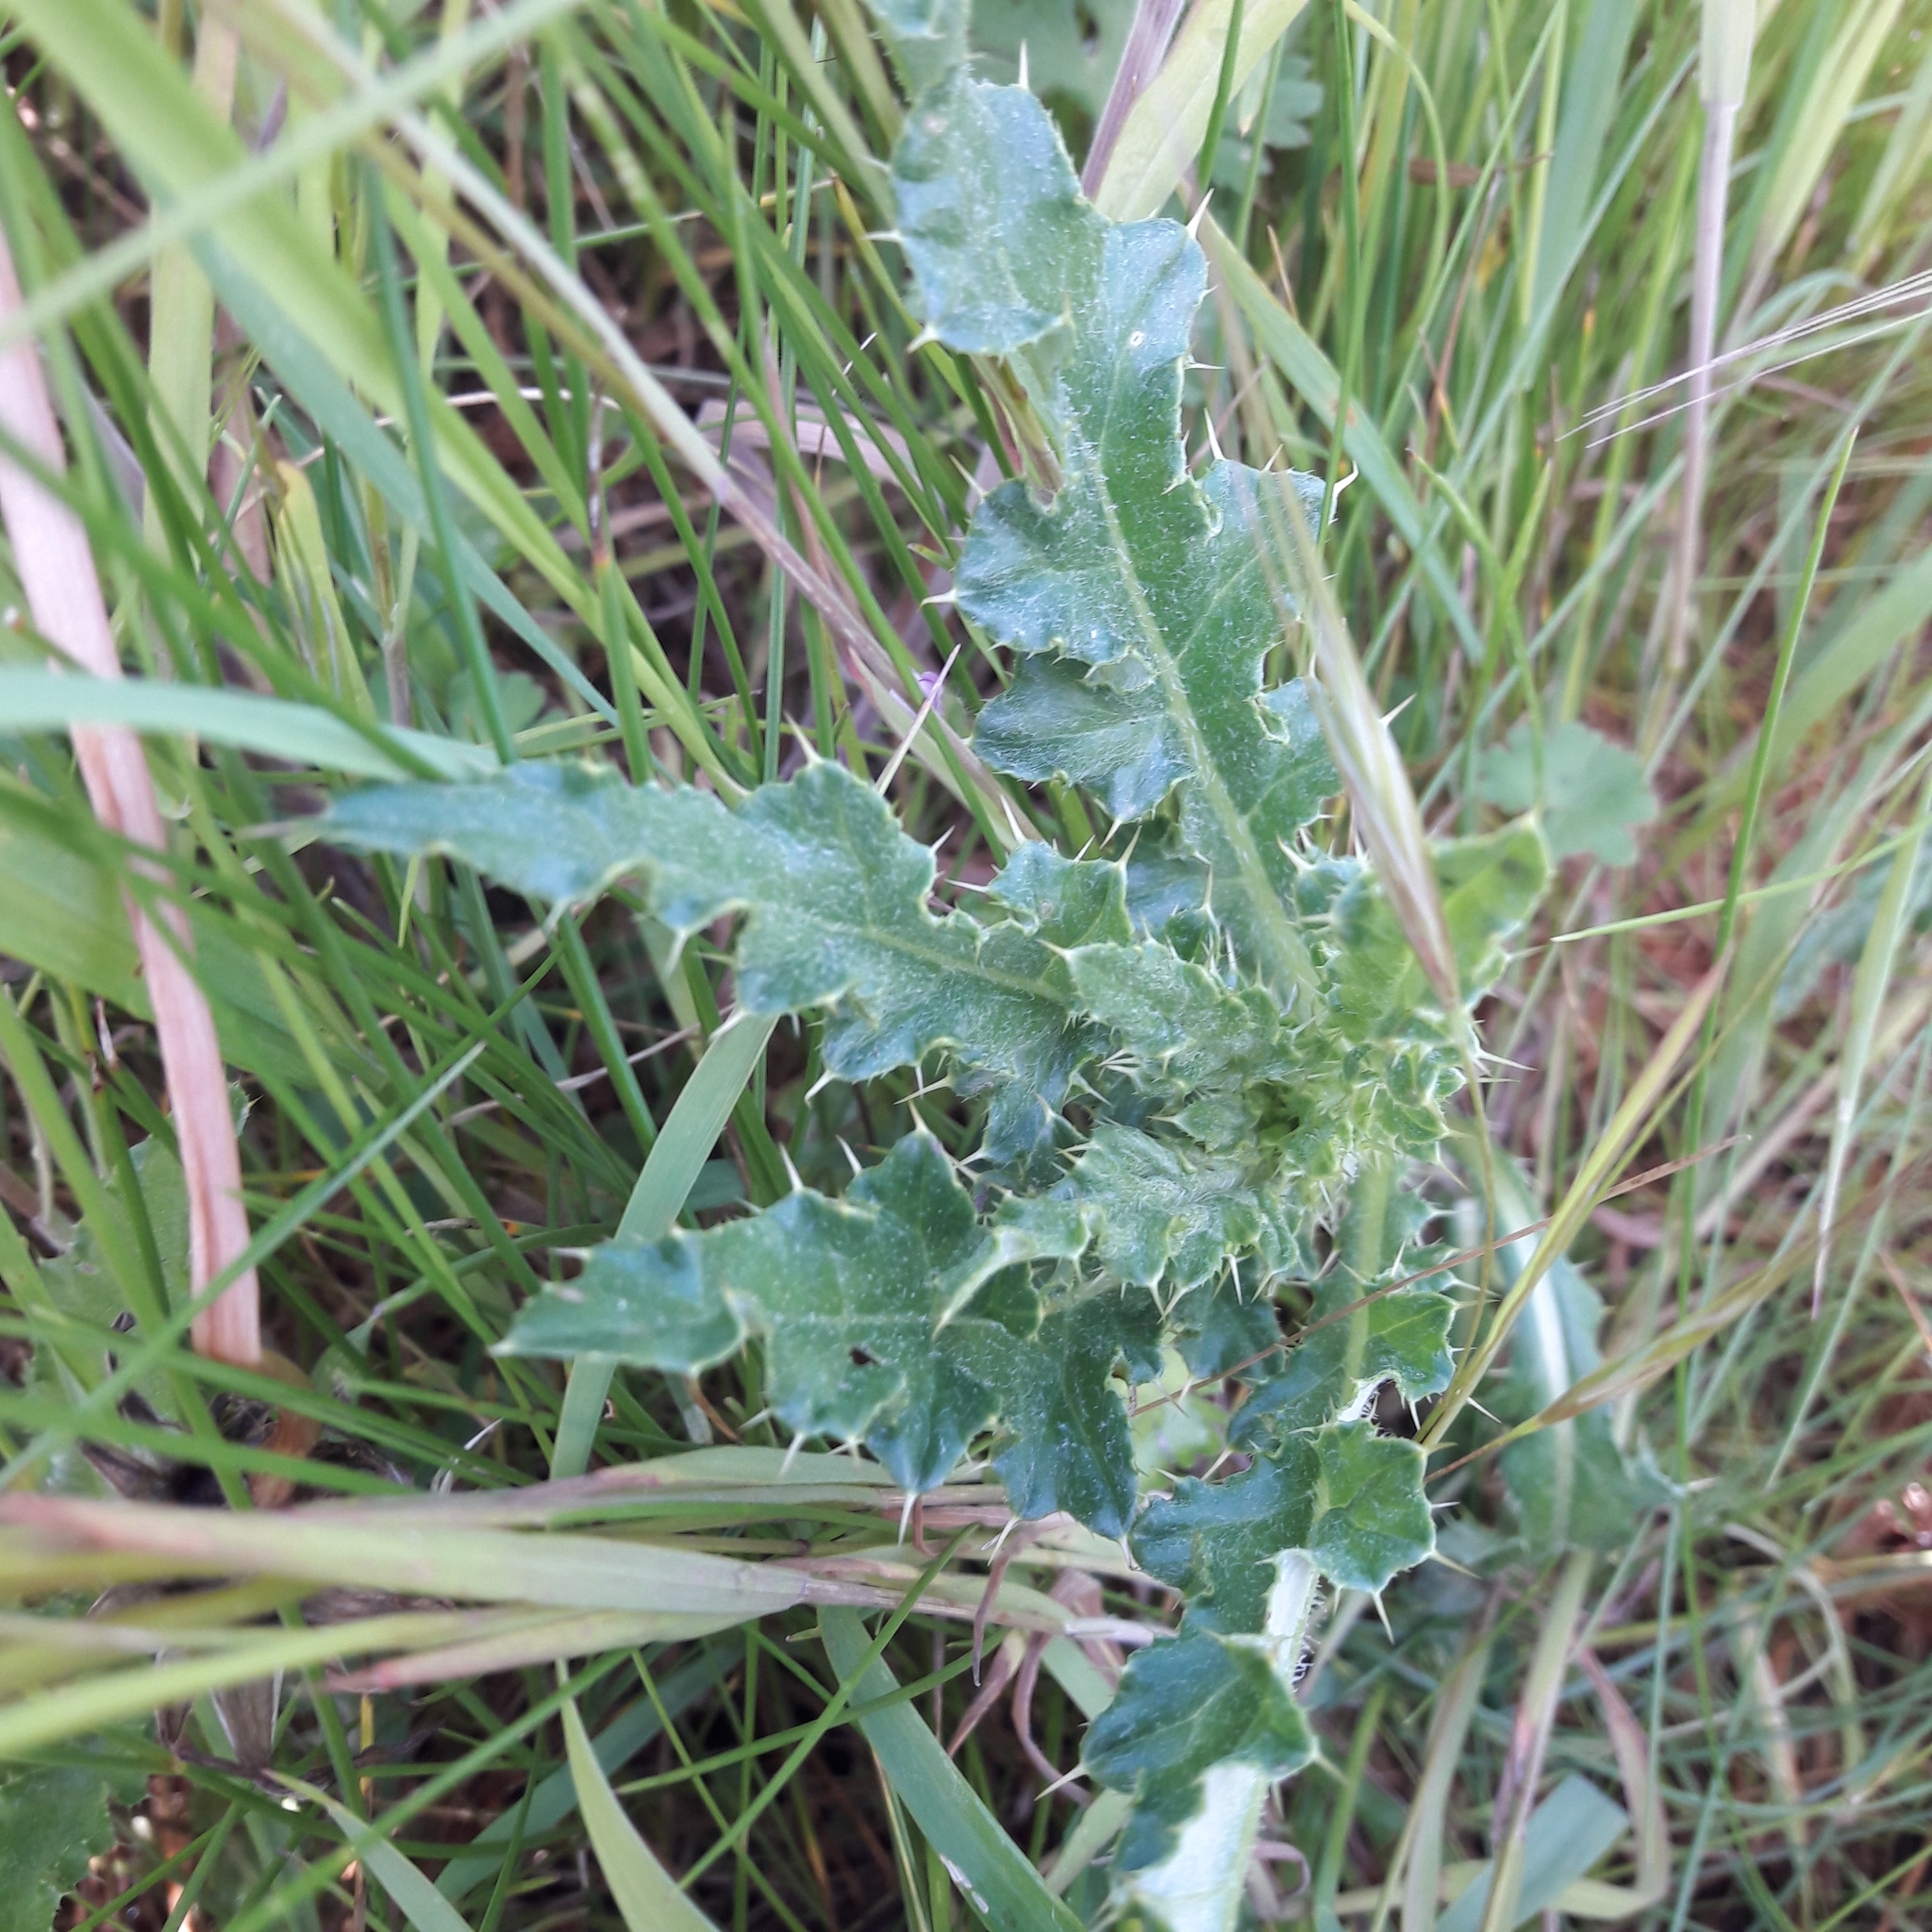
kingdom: Plantae
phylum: Tracheophyta
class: Magnoliopsida
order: Asterales
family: Asteraceae
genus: Cirsium
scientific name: Cirsium arvense
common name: Creeping thistle
